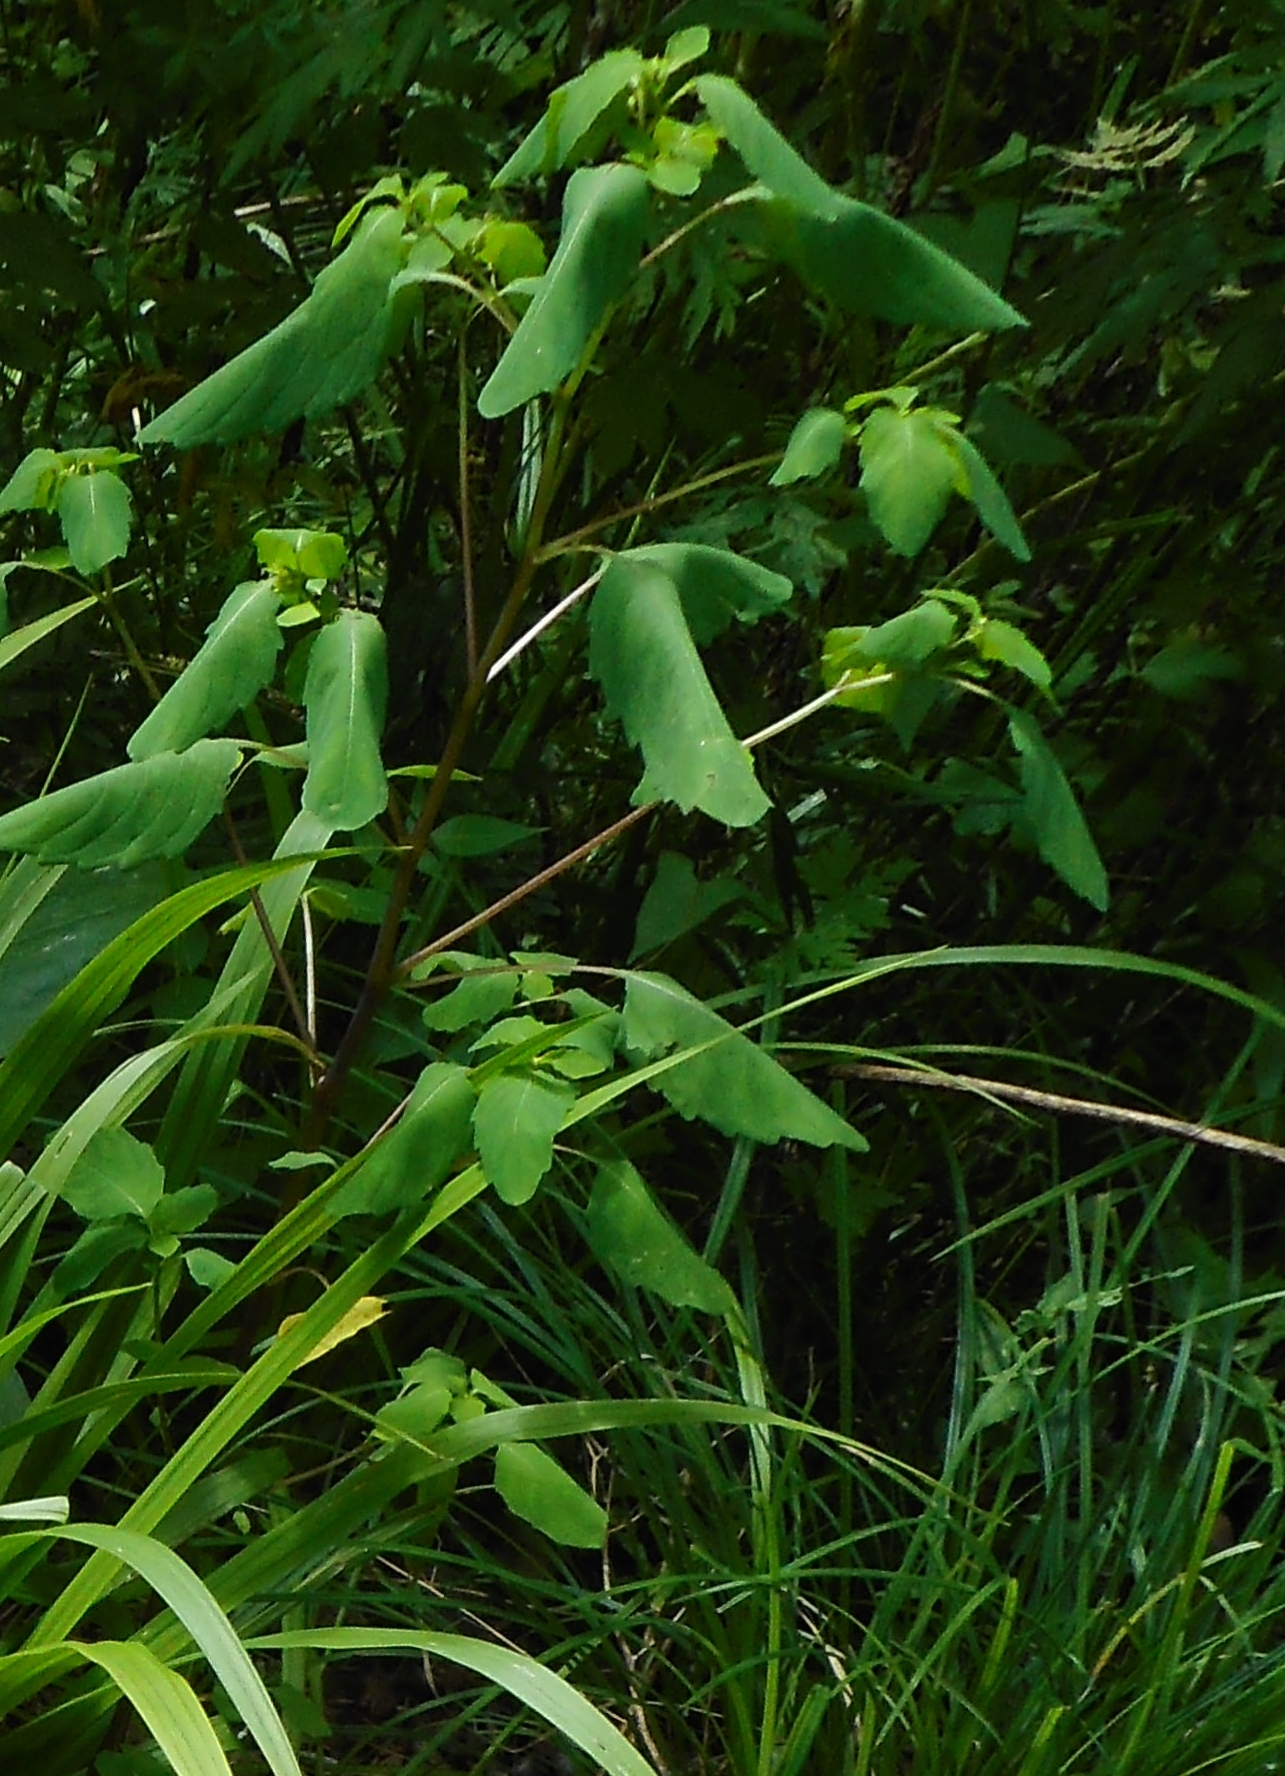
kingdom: Plantae
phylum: Tracheophyta
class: Magnoliopsida
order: Ericales
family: Balsaminaceae
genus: Impatiens
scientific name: Impatiens noli-tangere
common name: Touch-me-not balsam
